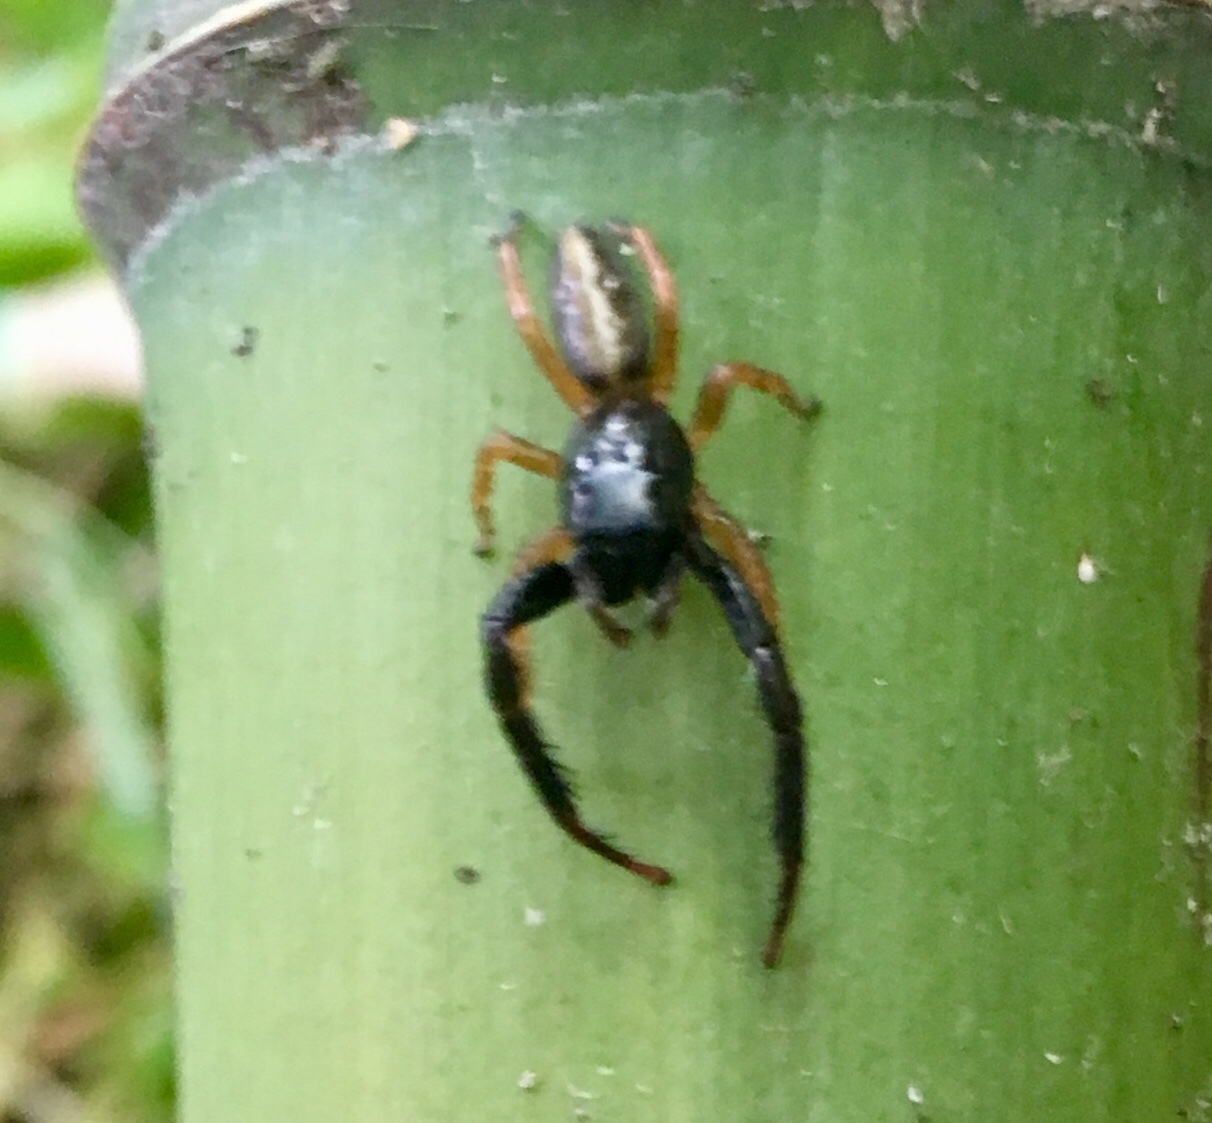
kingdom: Animalia
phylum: Arthropoda
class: Arachnida
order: Araneae
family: Salticidae
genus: Trite
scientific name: Trite planiceps
